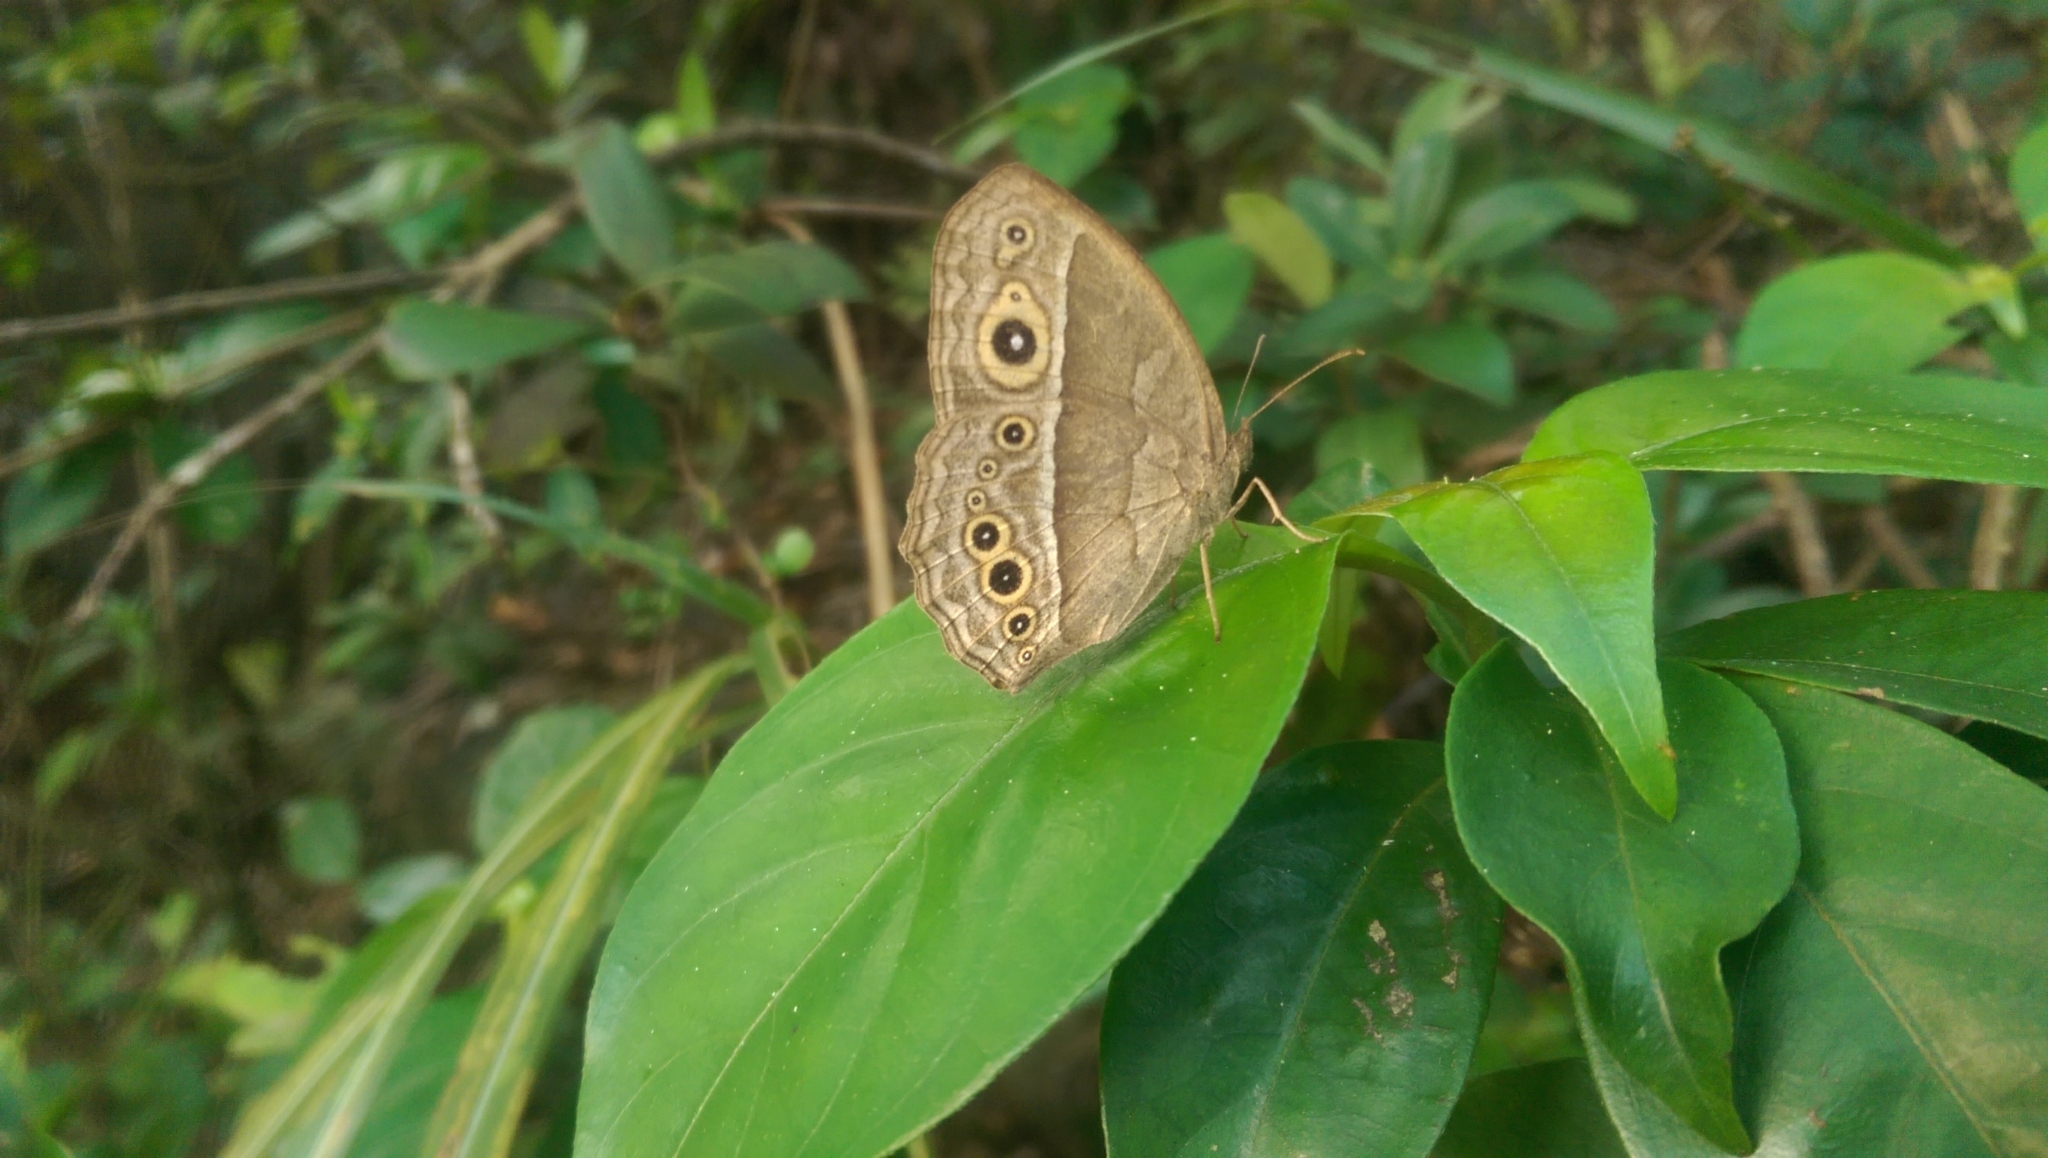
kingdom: Animalia
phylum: Arthropoda
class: Insecta
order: Lepidoptera
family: Nymphalidae
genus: Mycalesis
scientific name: Mycalesis horsfieldii
